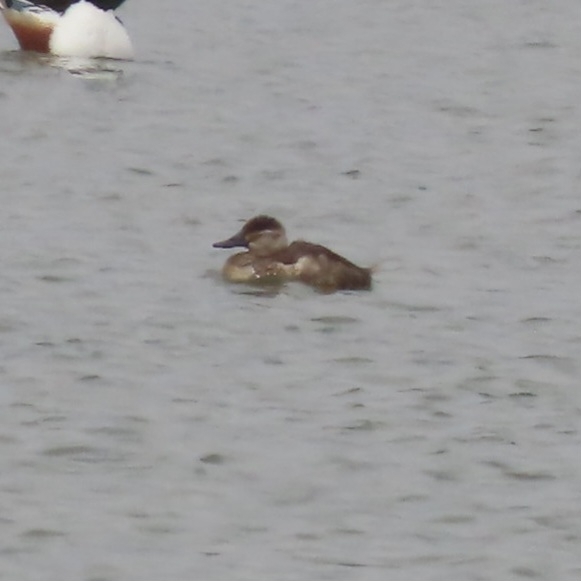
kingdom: Animalia
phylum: Chordata
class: Aves
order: Anseriformes
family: Anatidae
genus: Oxyura
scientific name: Oxyura jamaicensis
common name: Ruddy duck
